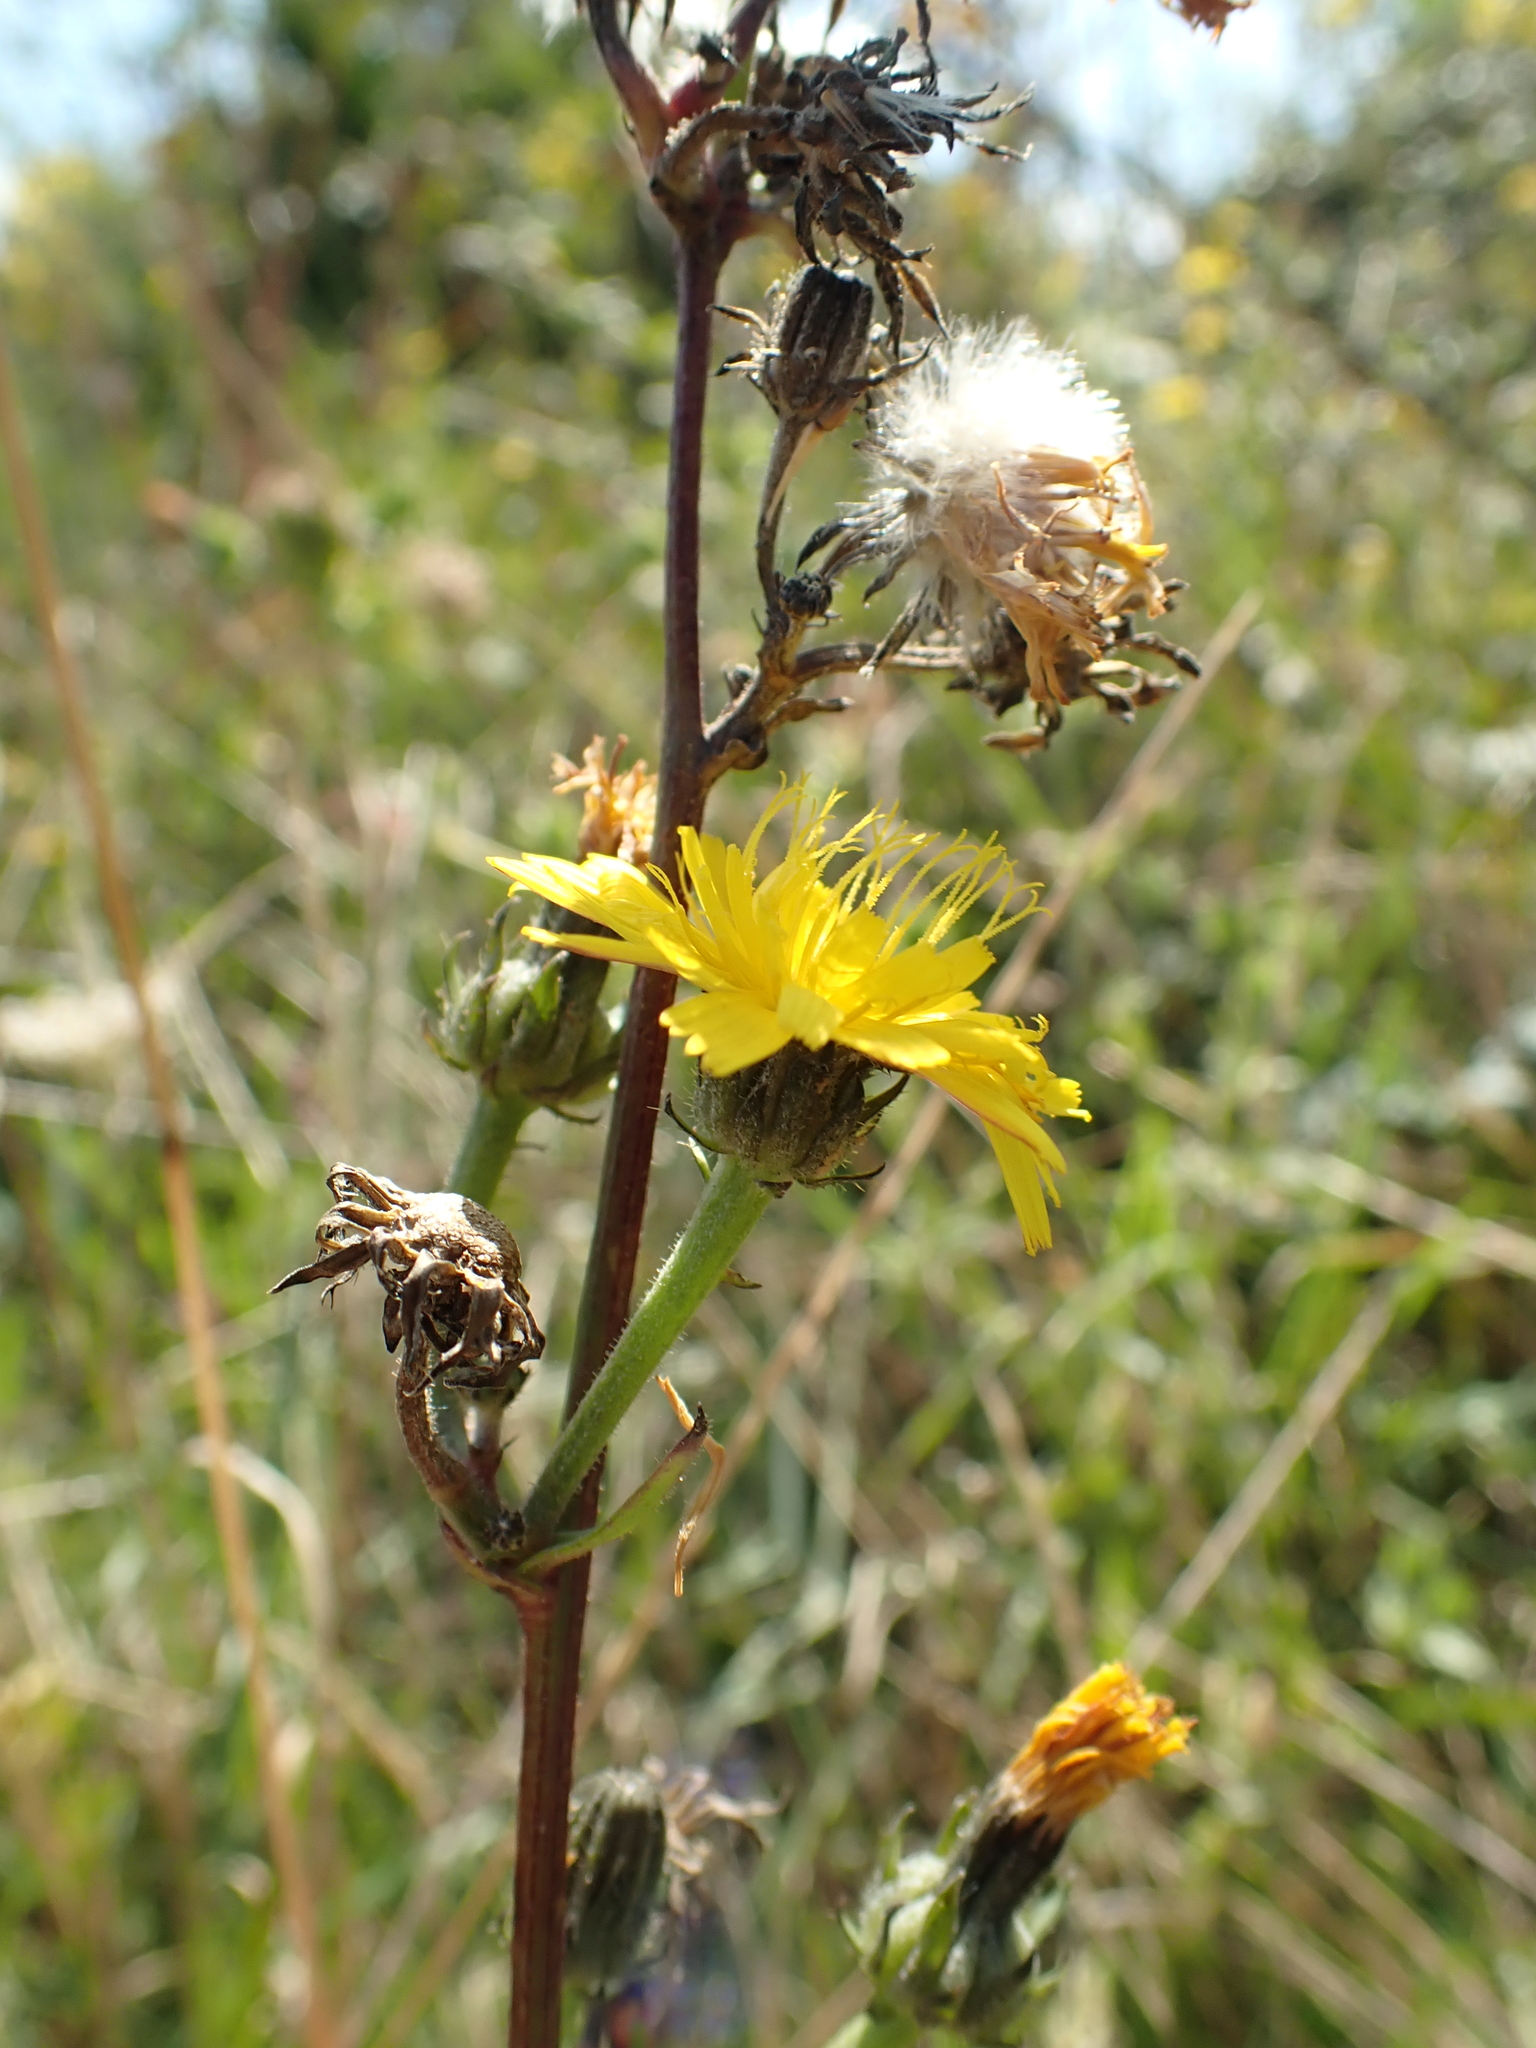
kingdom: Plantae
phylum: Tracheophyta
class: Magnoliopsida
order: Asterales
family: Asteraceae
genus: Picris
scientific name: Picris hieracioides
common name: Hawkweed oxtongue
